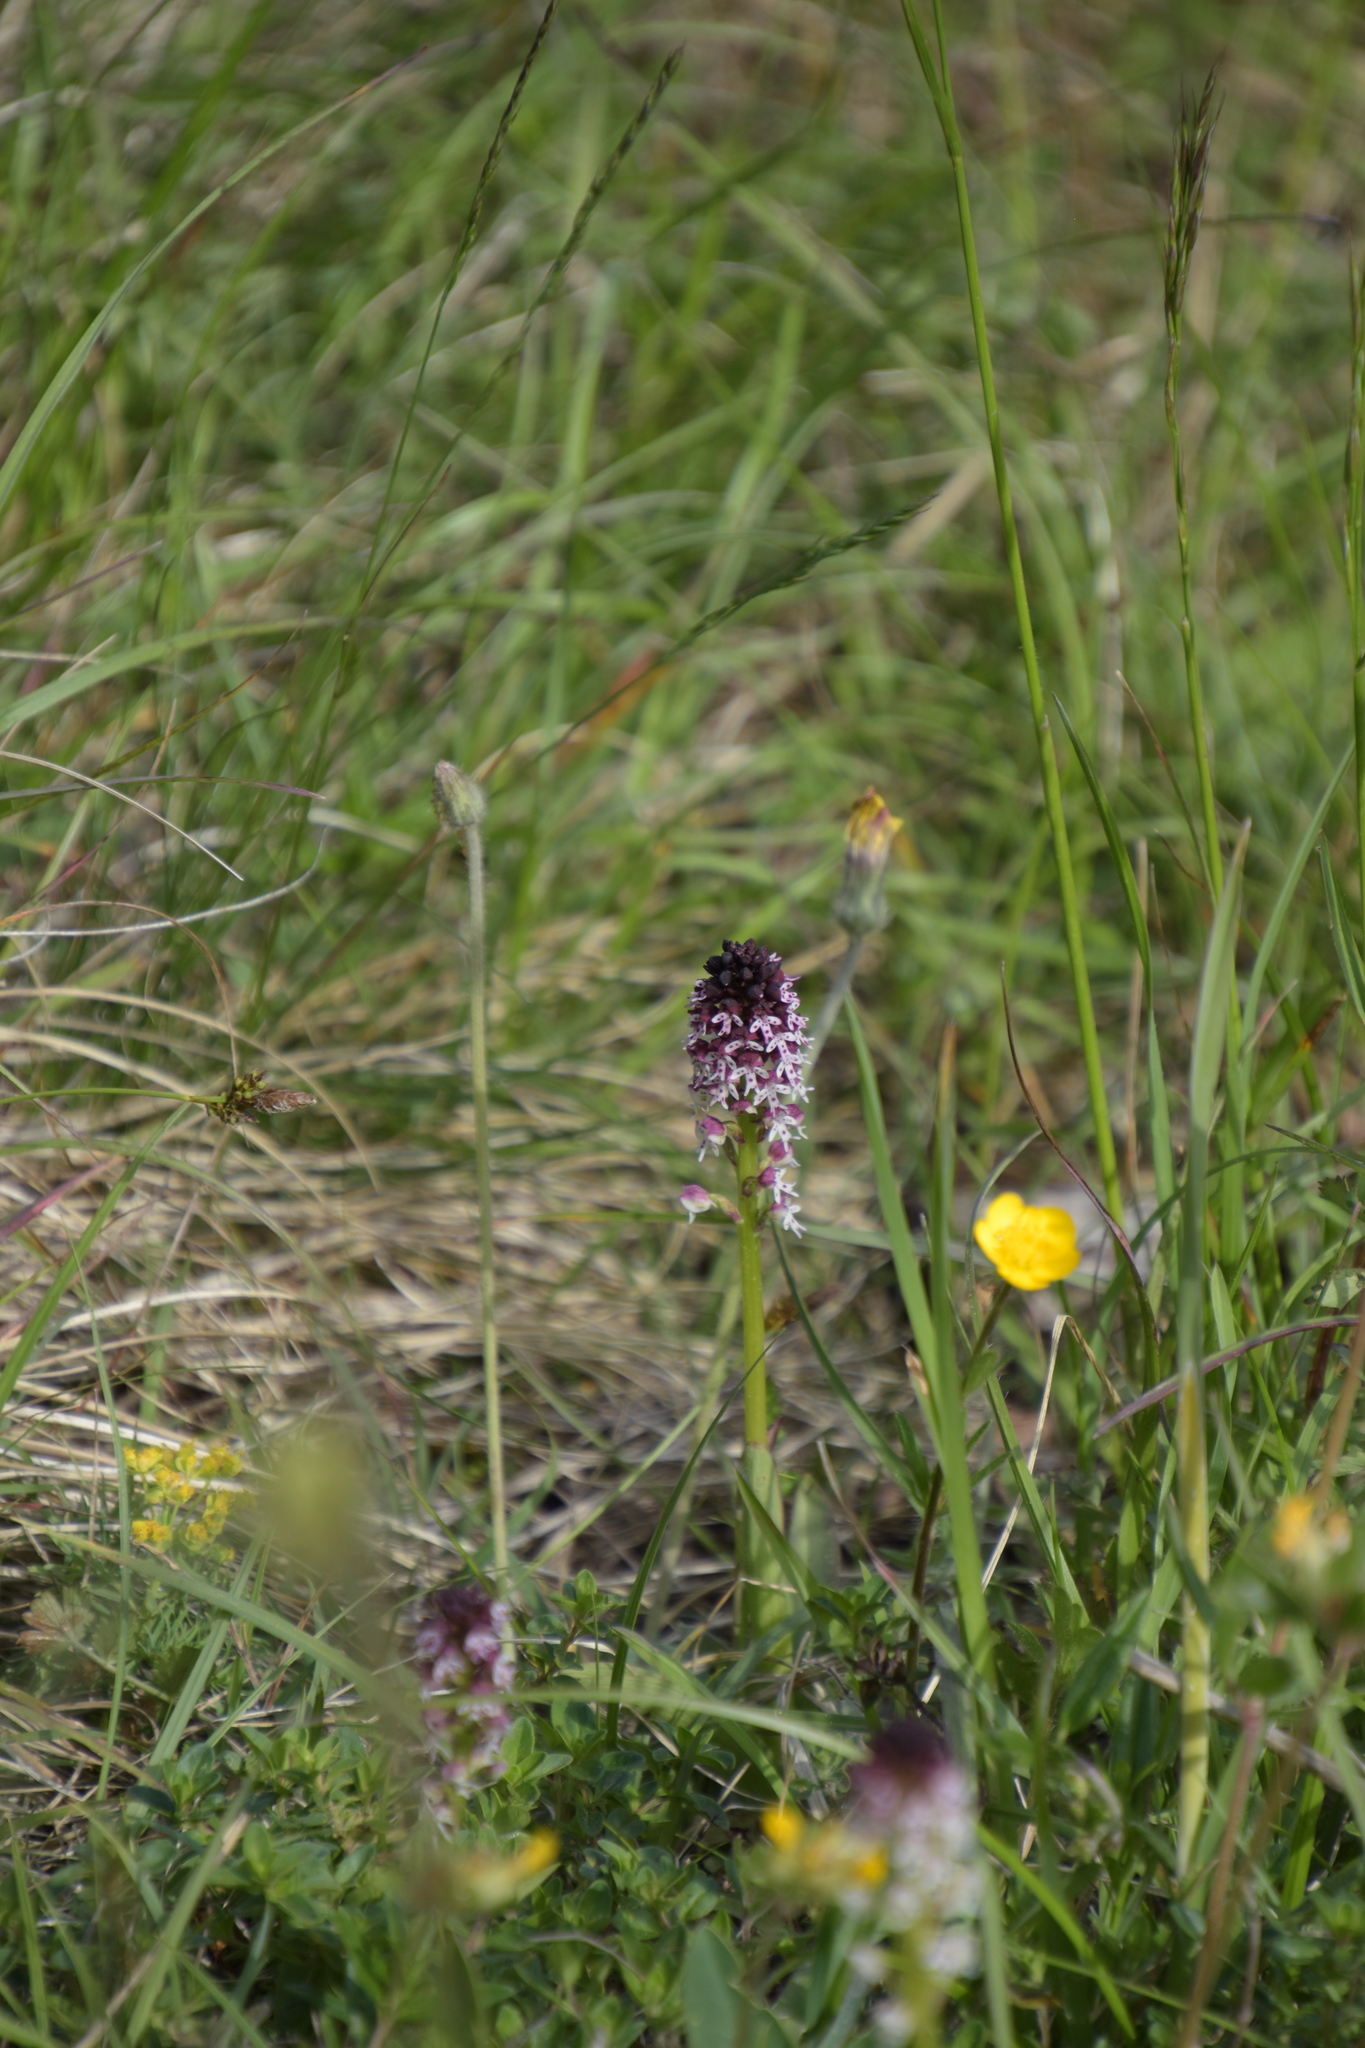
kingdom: Plantae
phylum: Tracheophyta
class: Liliopsida
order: Asparagales
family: Orchidaceae
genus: Neotinea
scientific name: Neotinea ustulata
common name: Burnt orchid
